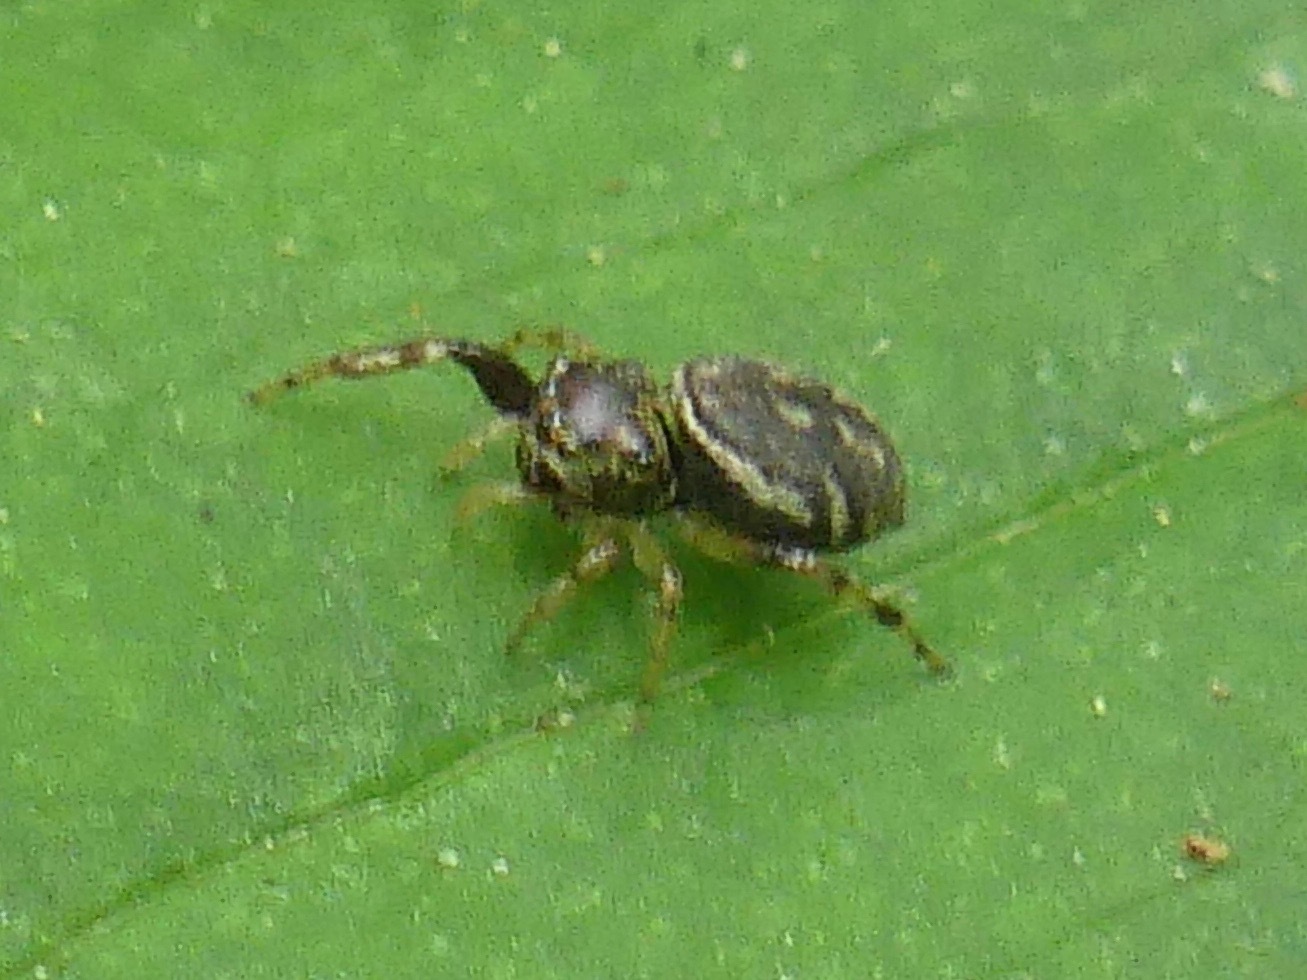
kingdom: Animalia
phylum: Arthropoda
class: Arachnida
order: Araneae
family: Salticidae
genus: Zygoballus
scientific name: Zygoballus rufipes
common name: Jumping spiders
